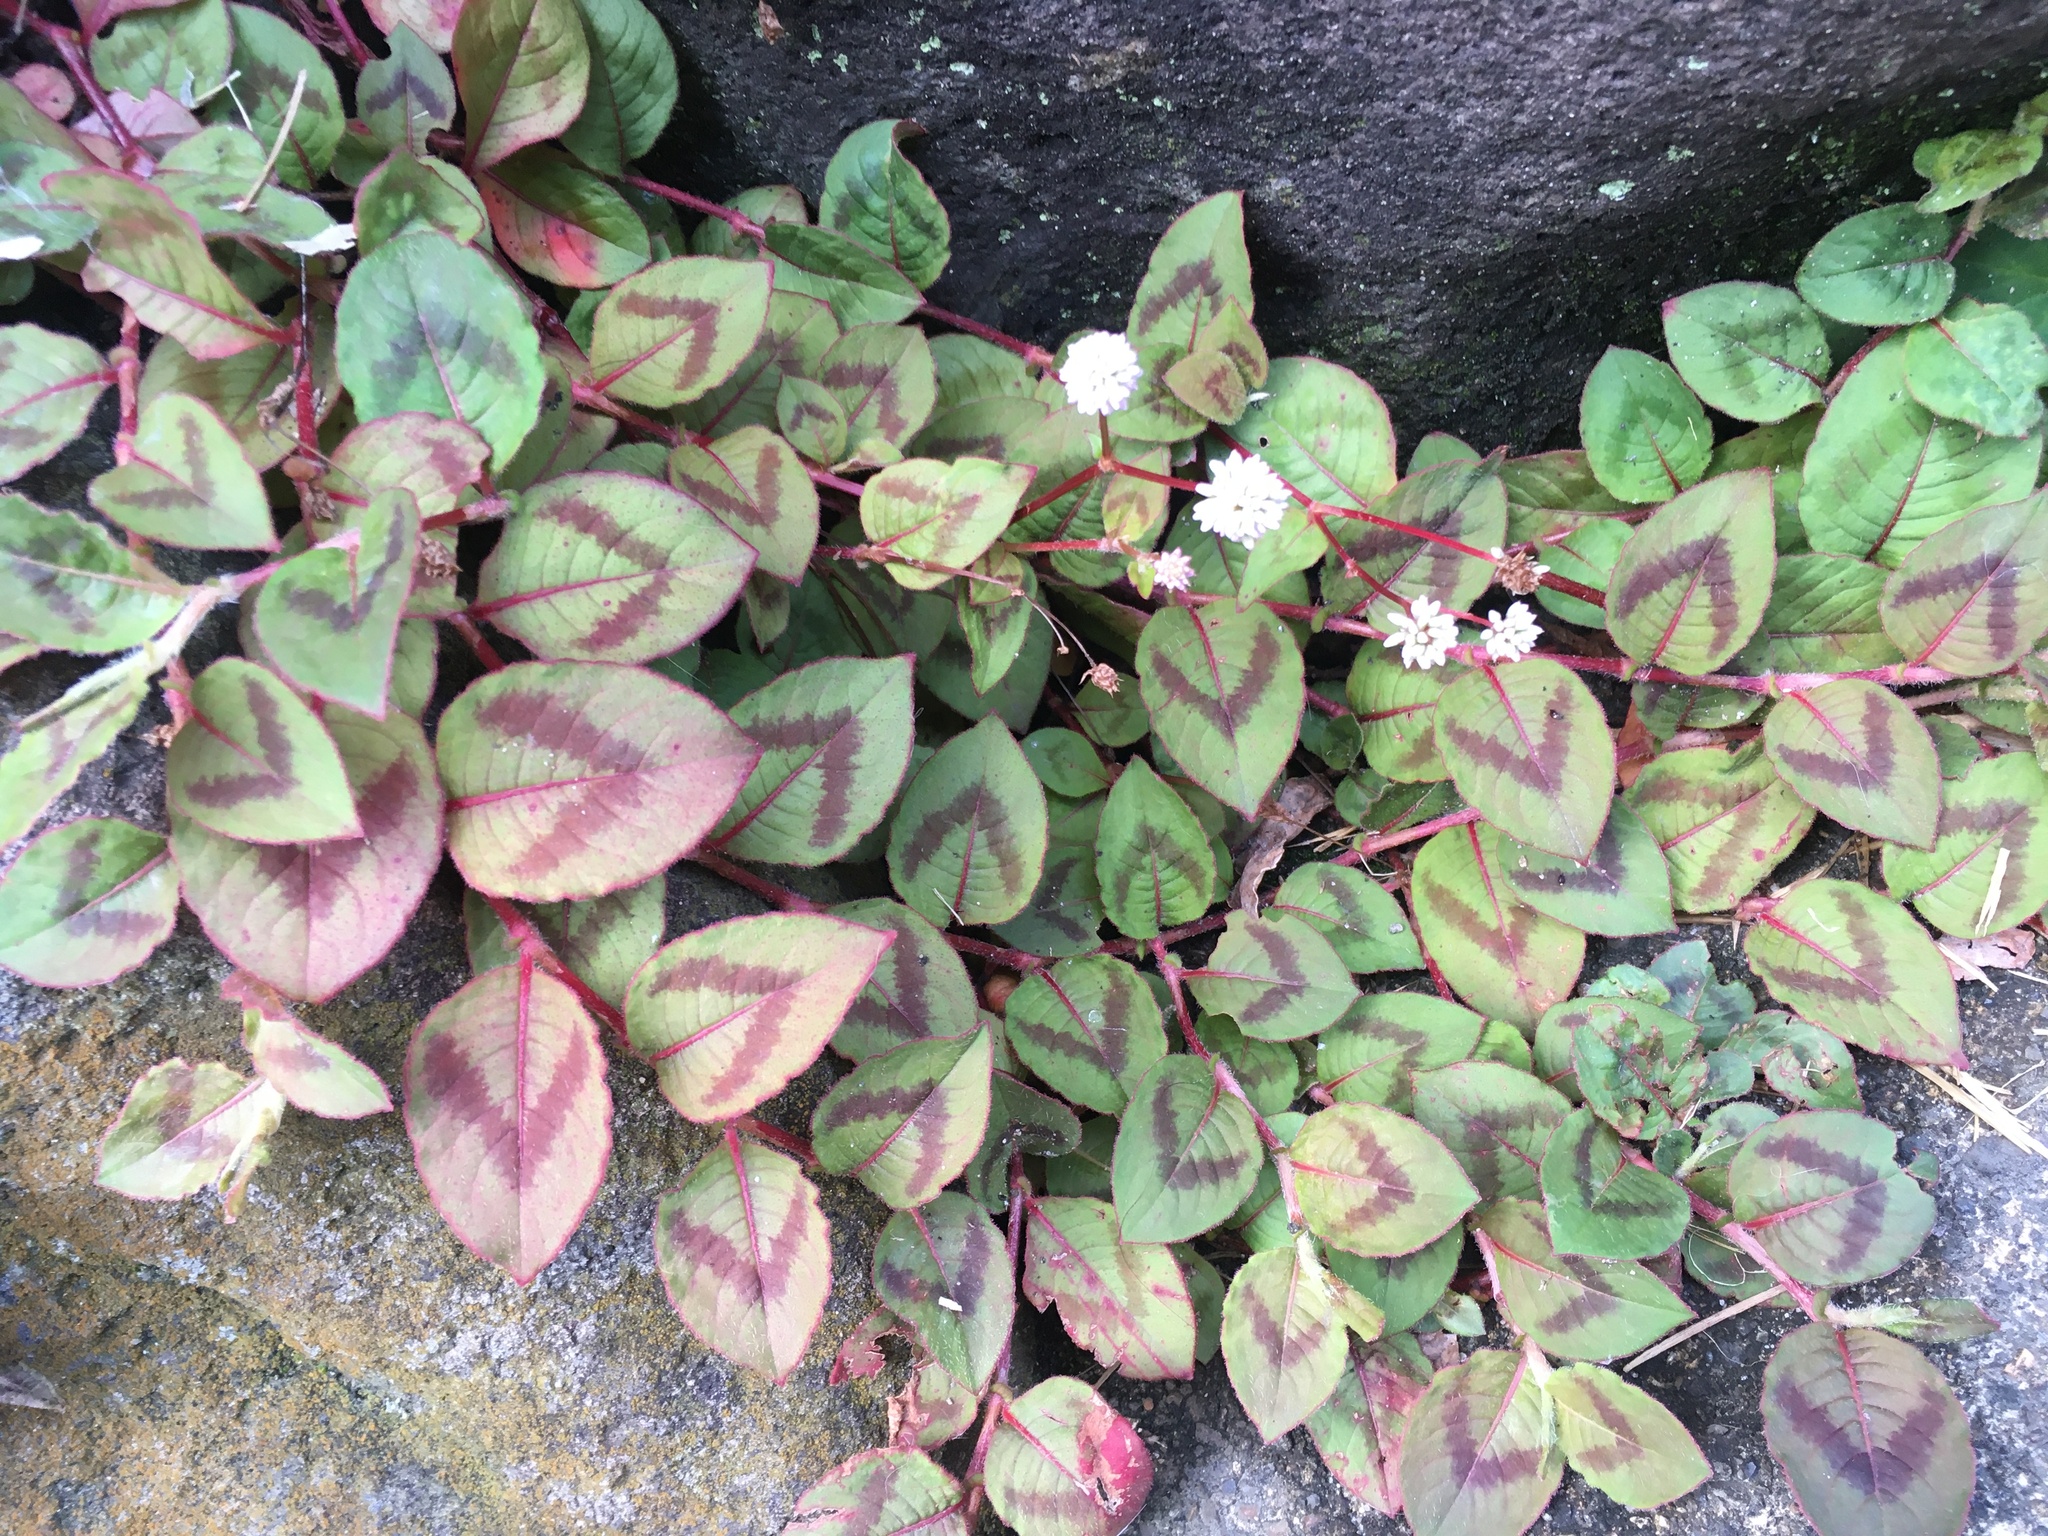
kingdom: Plantae
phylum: Tracheophyta
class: Magnoliopsida
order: Caryophyllales
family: Polygonaceae
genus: Persicaria
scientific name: Persicaria capitata
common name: Pinkhead smartweed
